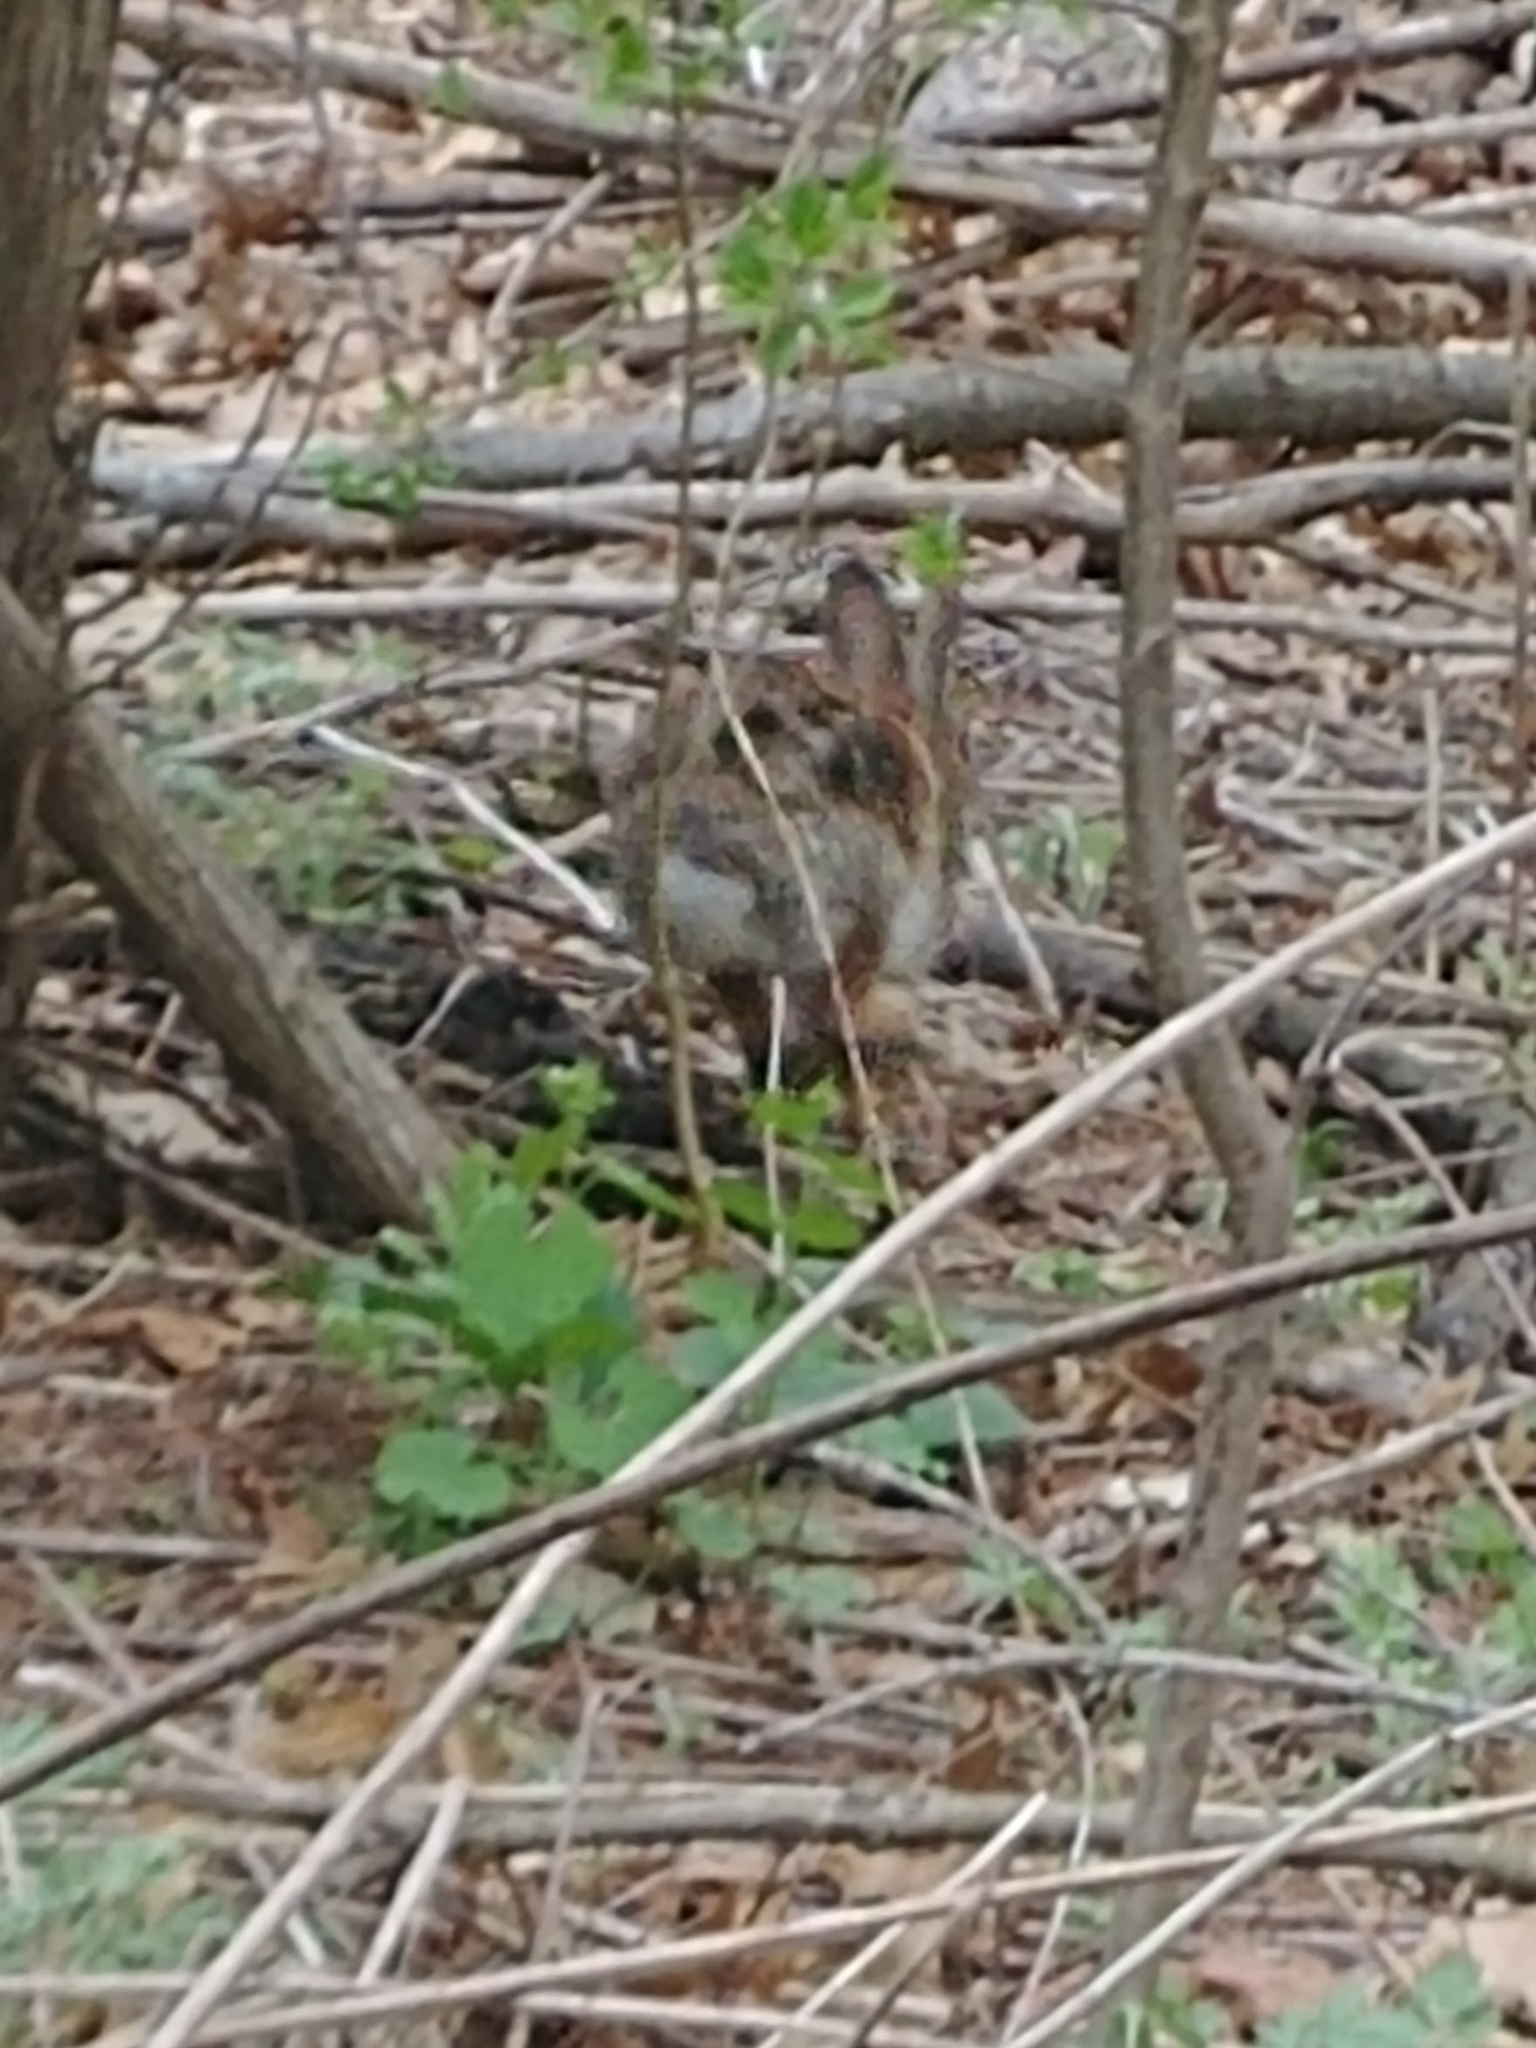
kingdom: Animalia
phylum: Chordata
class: Mammalia
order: Lagomorpha
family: Leporidae
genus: Sylvilagus
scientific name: Sylvilagus floridanus
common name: Eastern cottontail
